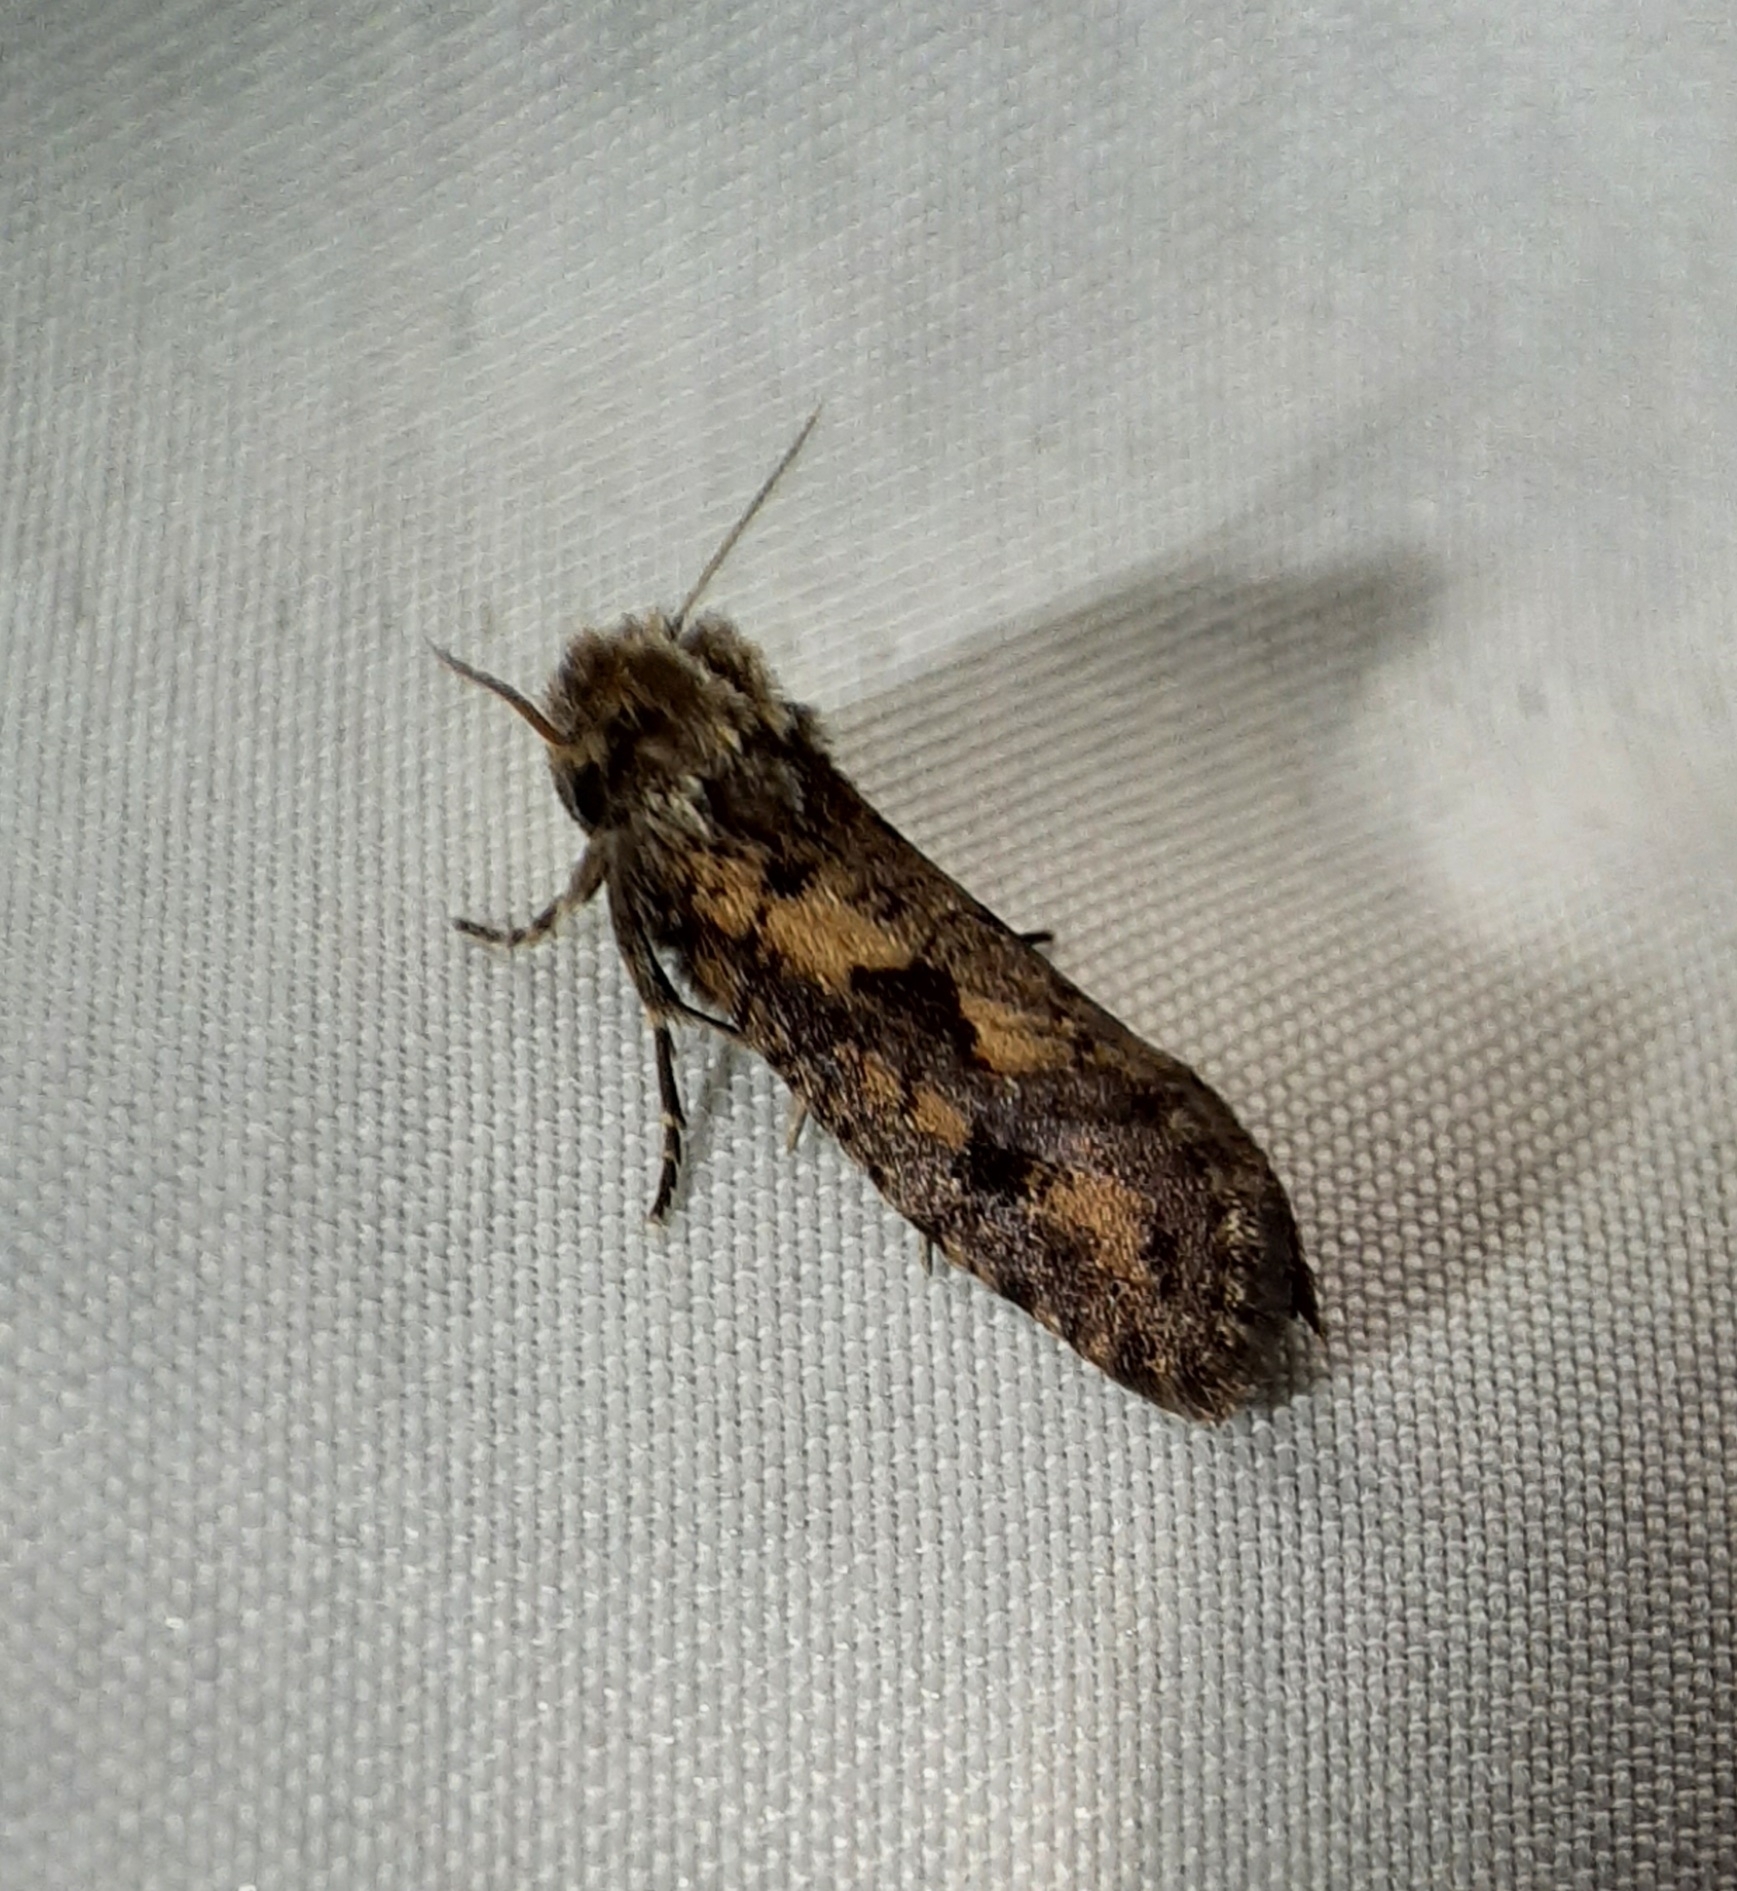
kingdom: Animalia
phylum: Arthropoda
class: Insecta
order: Lepidoptera
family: Tineidae
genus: Acrolophus
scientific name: Acrolophus popeanella
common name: Clemens' grass tubeworm moth
